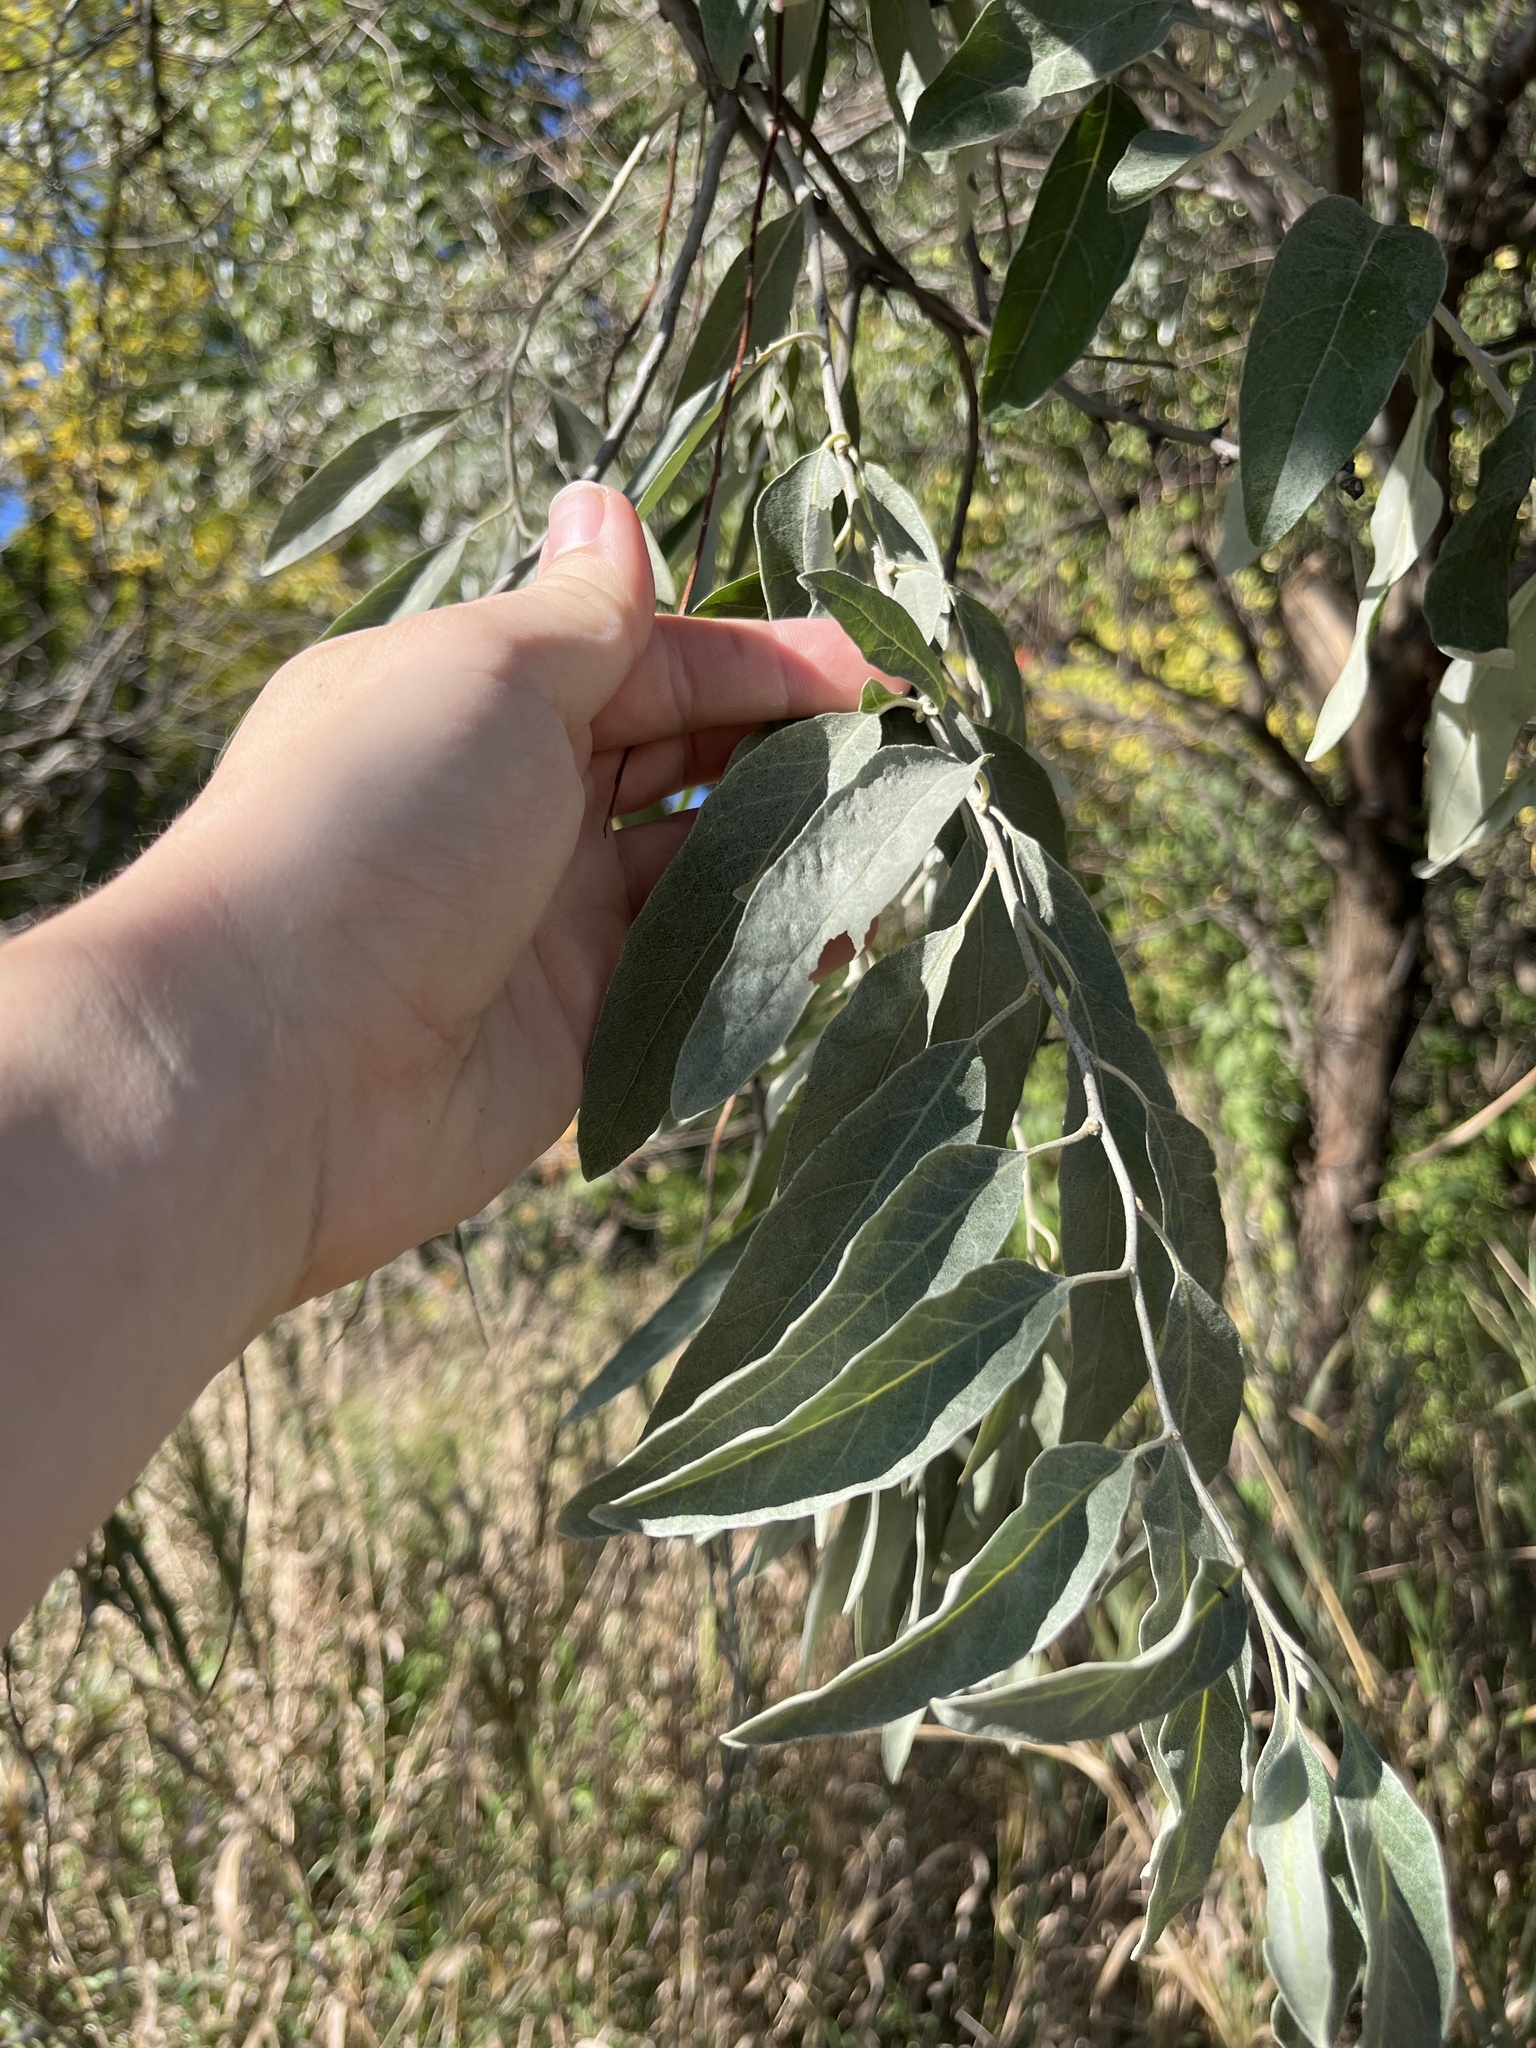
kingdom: Plantae
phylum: Tracheophyta
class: Magnoliopsida
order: Rosales
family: Elaeagnaceae
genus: Elaeagnus
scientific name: Elaeagnus angustifolia
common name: Russian olive
